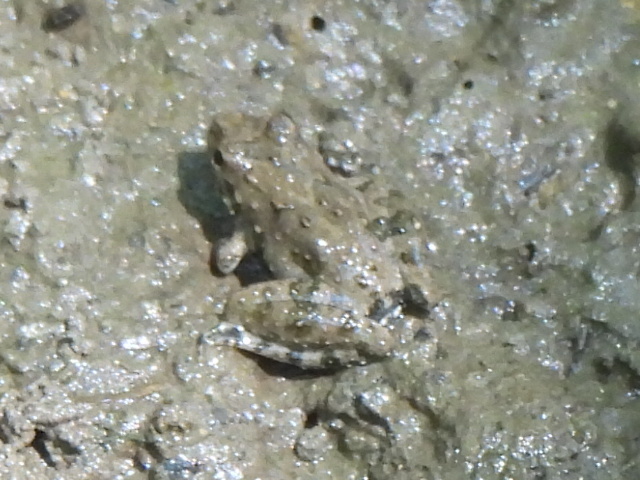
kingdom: Animalia
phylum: Chordata
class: Amphibia
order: Anura
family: Hylidae
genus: Acris
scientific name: Acris blanchardi
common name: Blanchard's cricket frog
